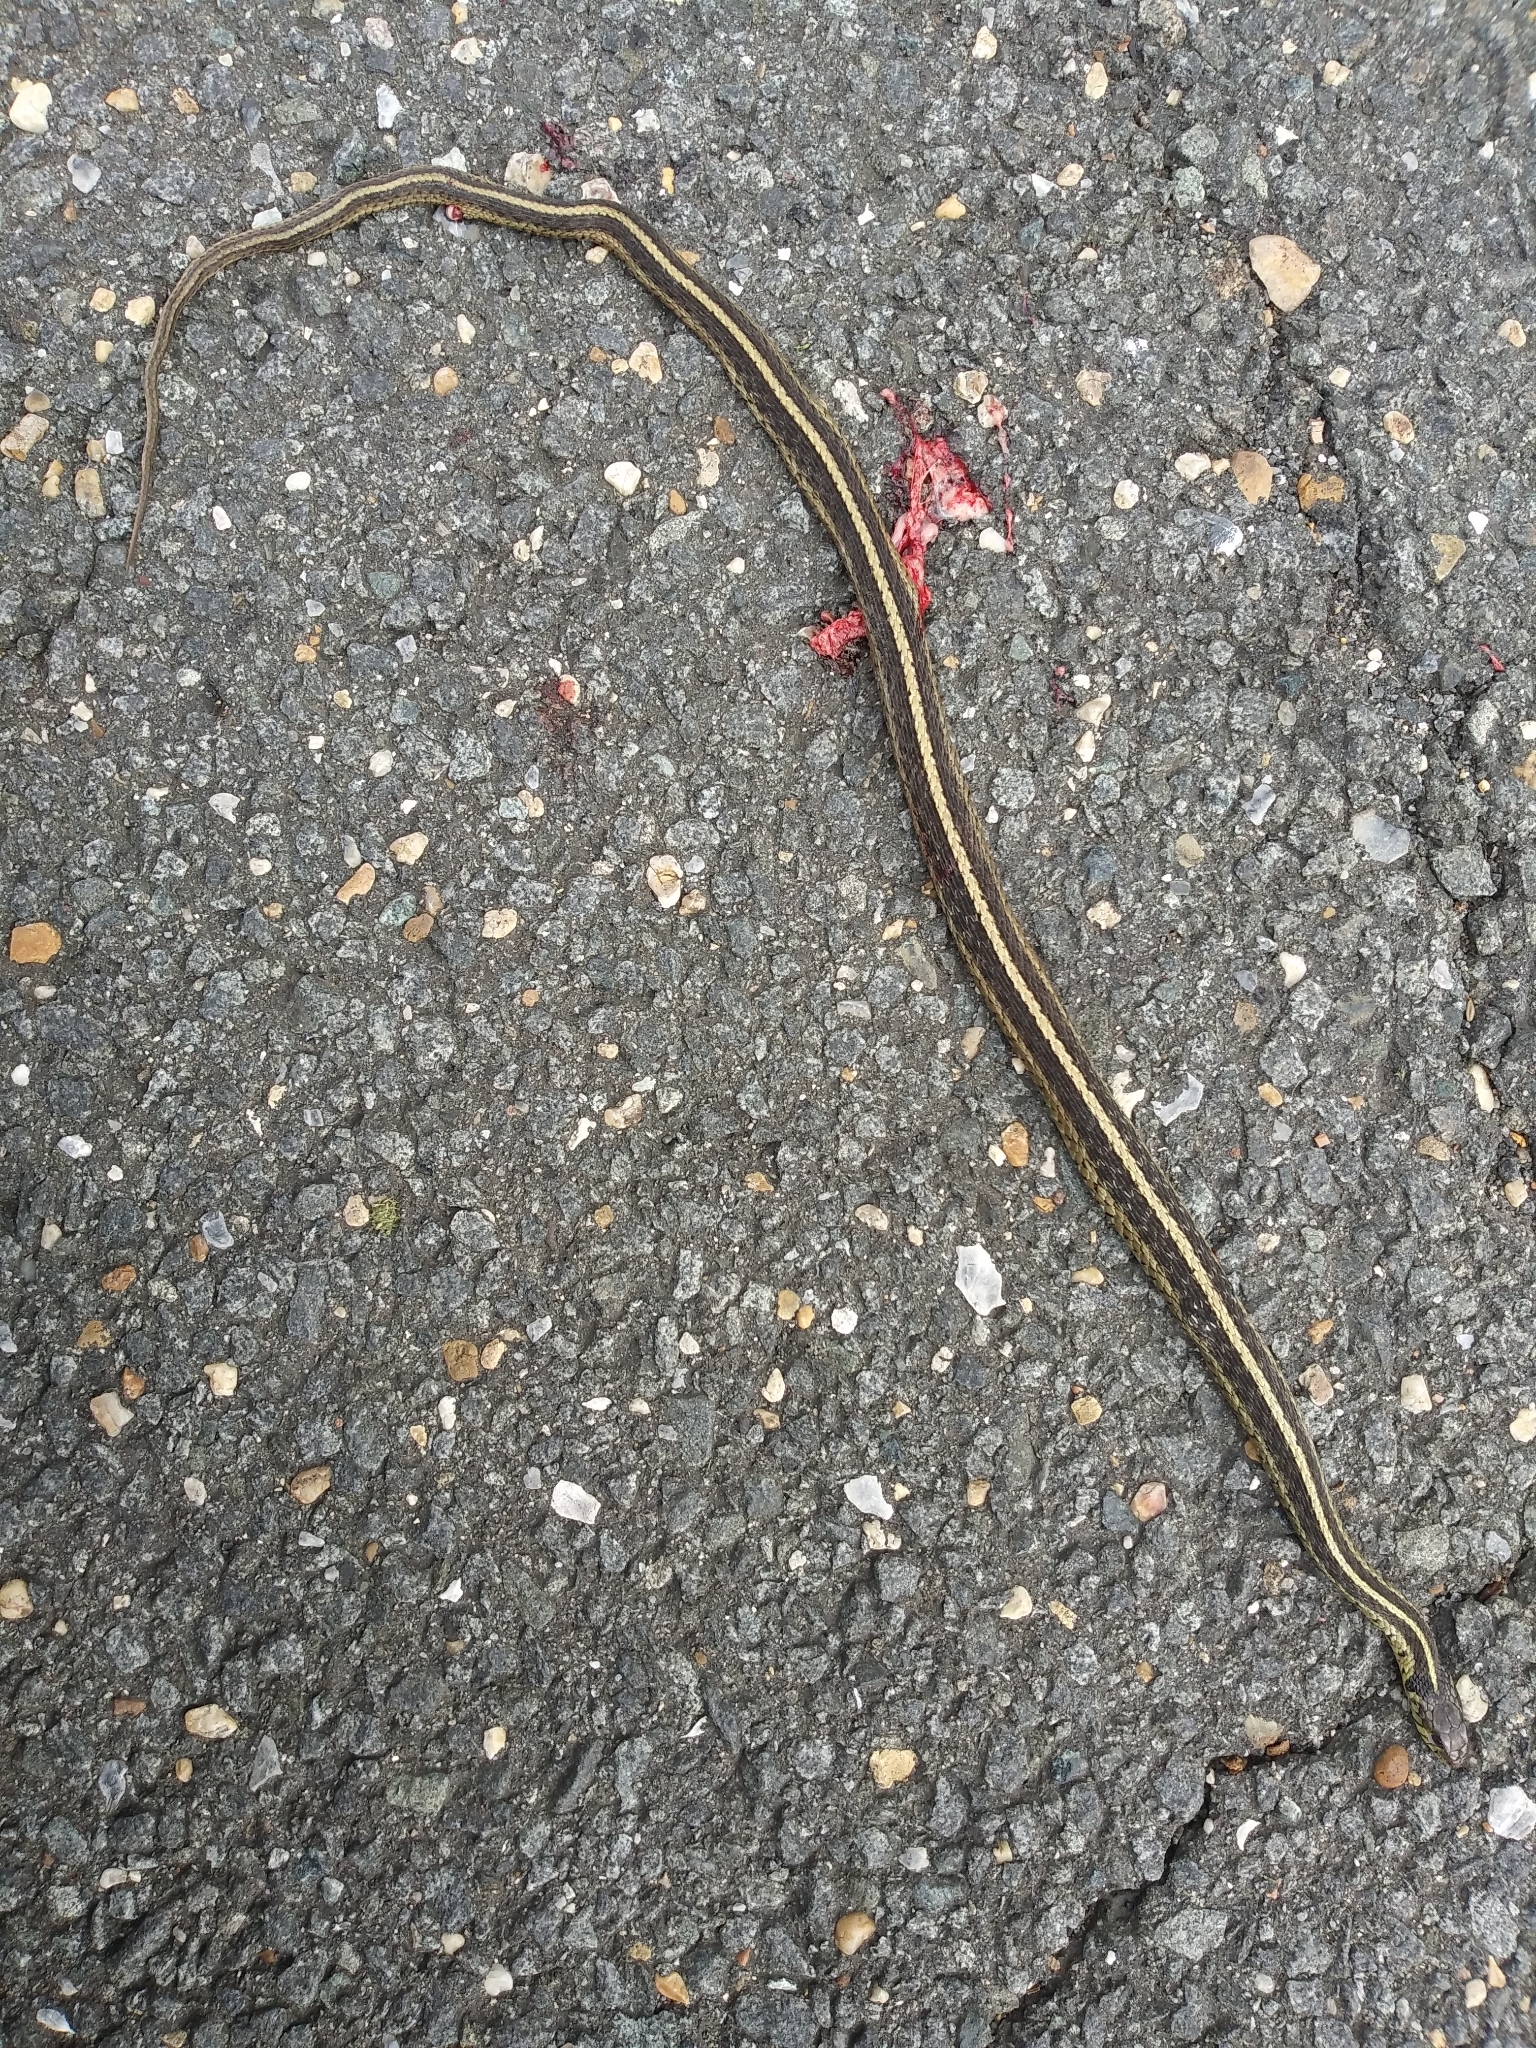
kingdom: Animalia
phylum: Chordata
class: Squamata
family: Colubridae
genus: Thamnophis
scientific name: Thamnophis sirtalis
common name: Common garter snake
